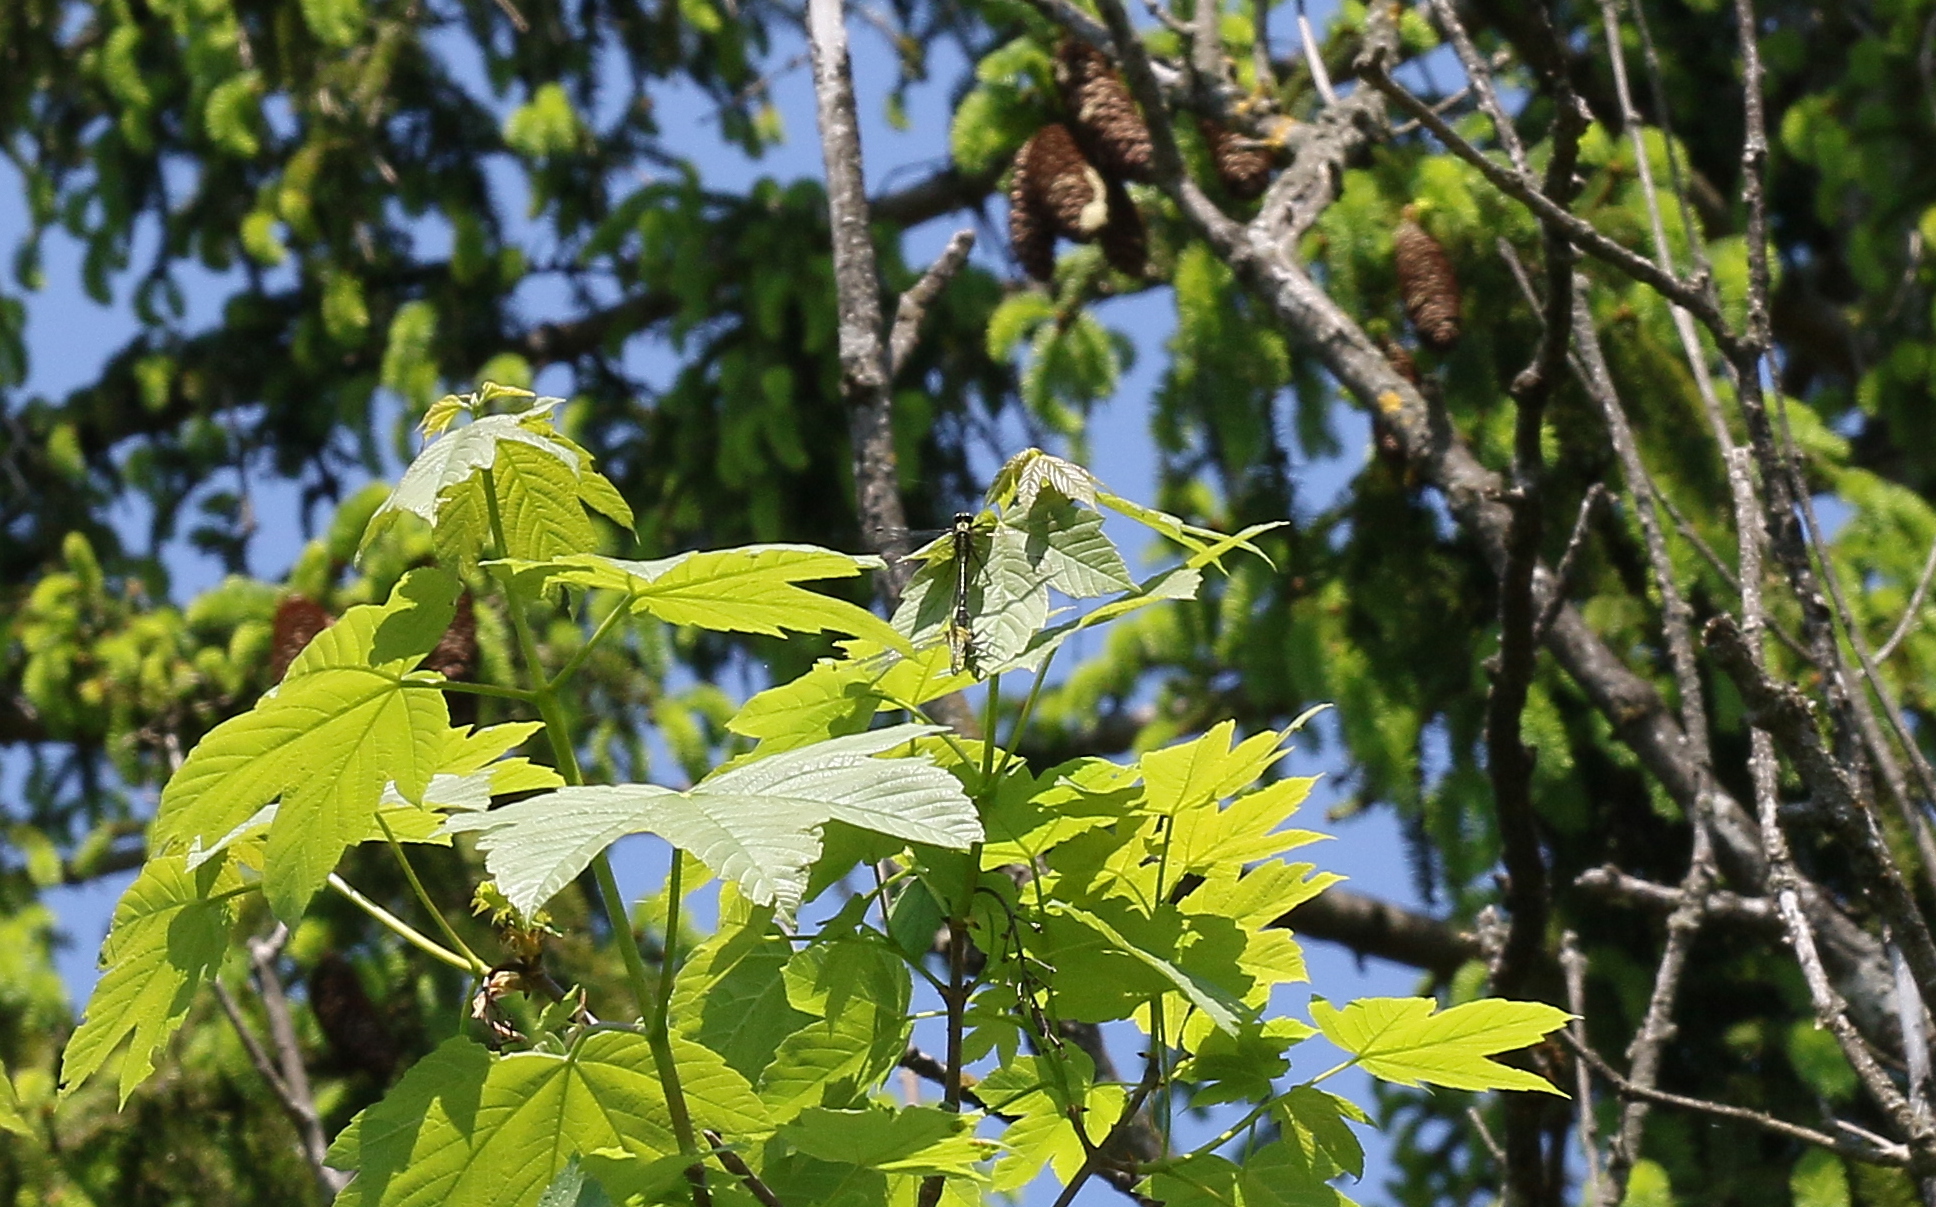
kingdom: Animalia
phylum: Arthropoda
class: Insecta
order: Odonata
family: Gomphidae
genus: Gomphus
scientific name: Gomphus vulgatissimus
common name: Club-tailed dragonfly
